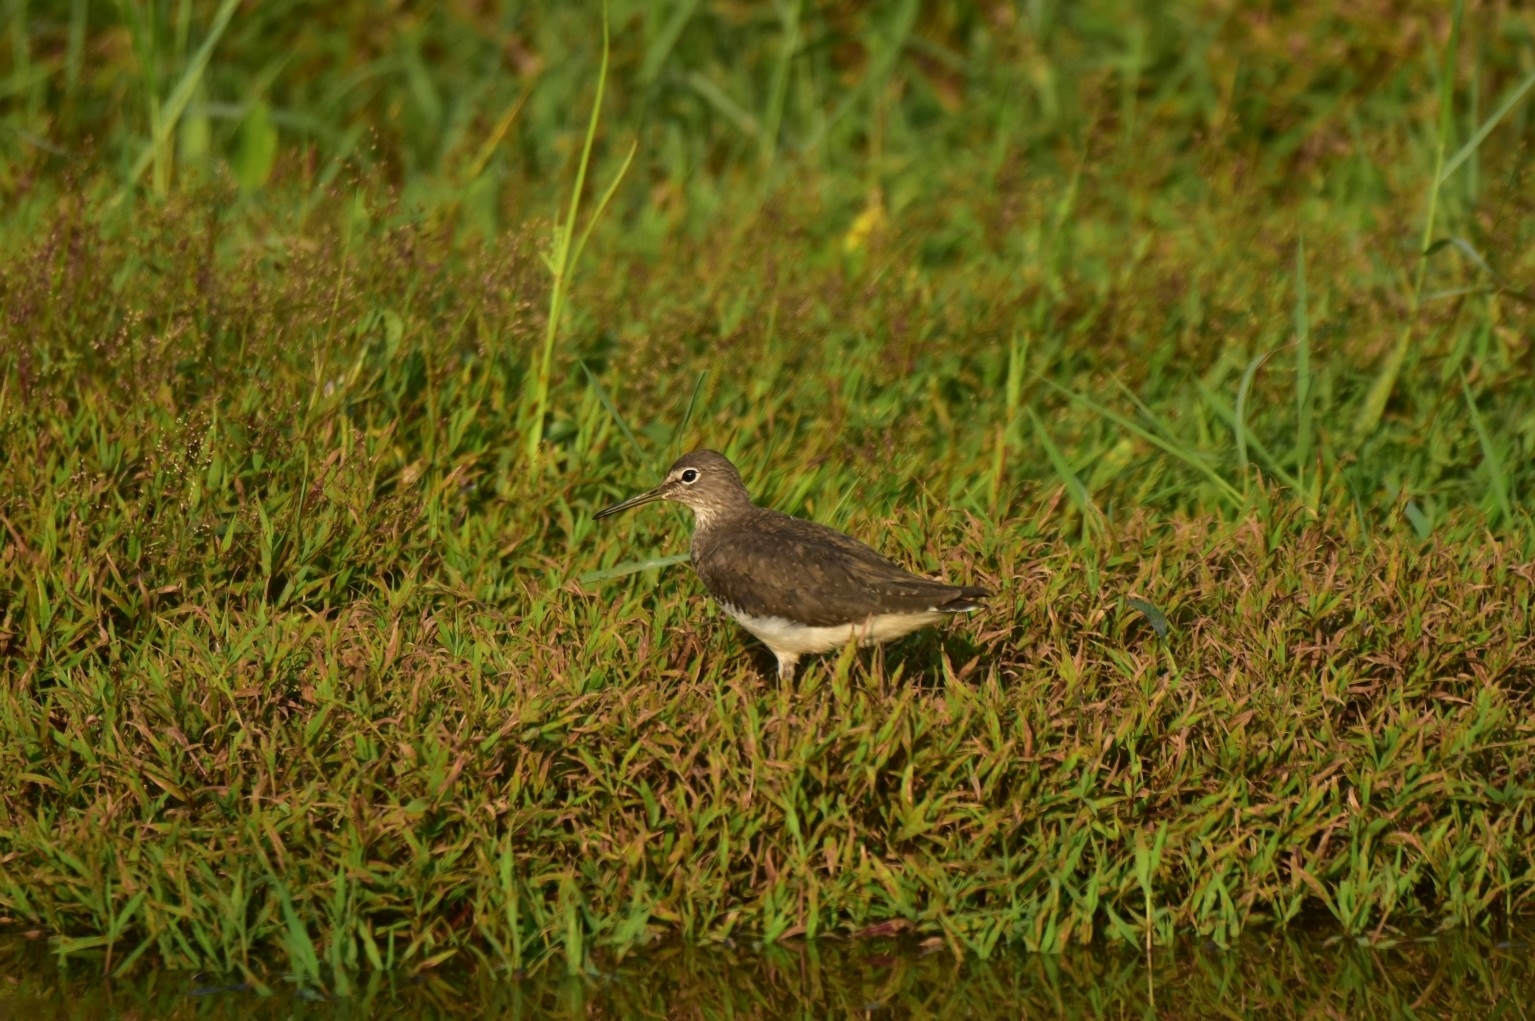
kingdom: Animalia
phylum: Chordata
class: Aves
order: Charadriiformes
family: Scolopacidae
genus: Tringa
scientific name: Tringa ochropus
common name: Green sandpiper
